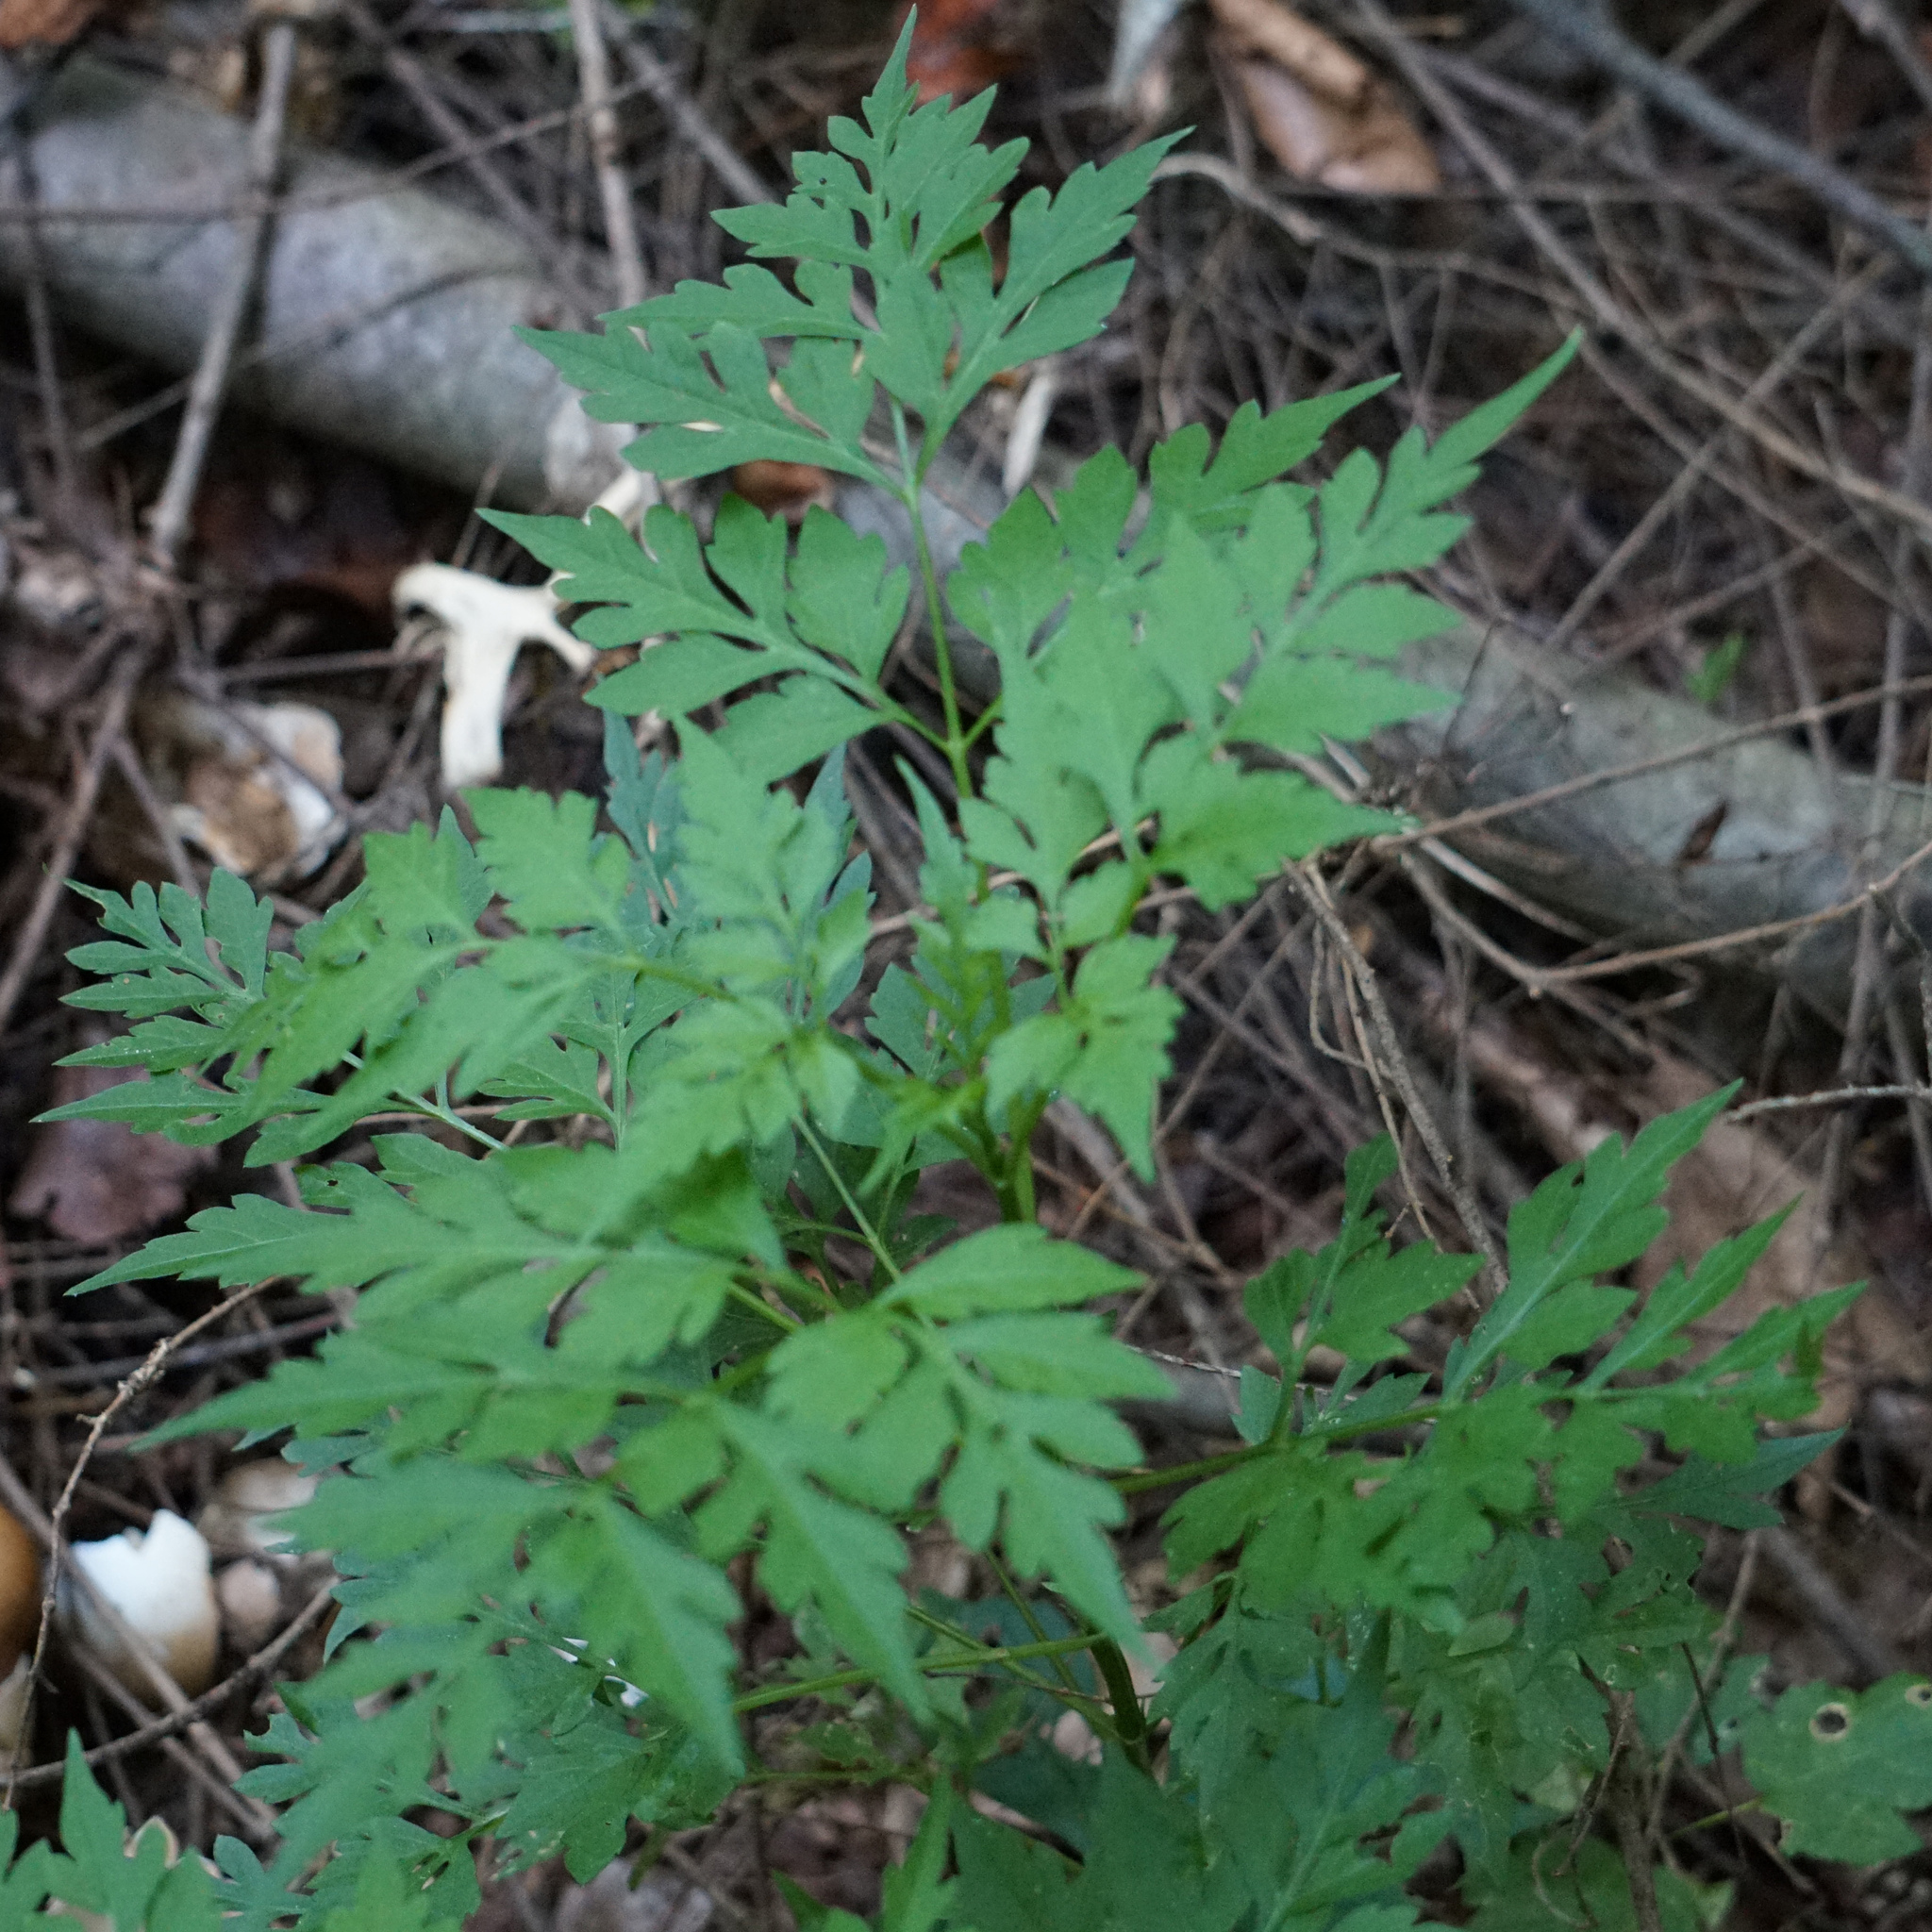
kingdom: Plantae
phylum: Tracheophyta
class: Magnoliopsida
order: Asterales
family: Asteraceae
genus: Bidens
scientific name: Bidens bipinnata
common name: Spanish-needles
